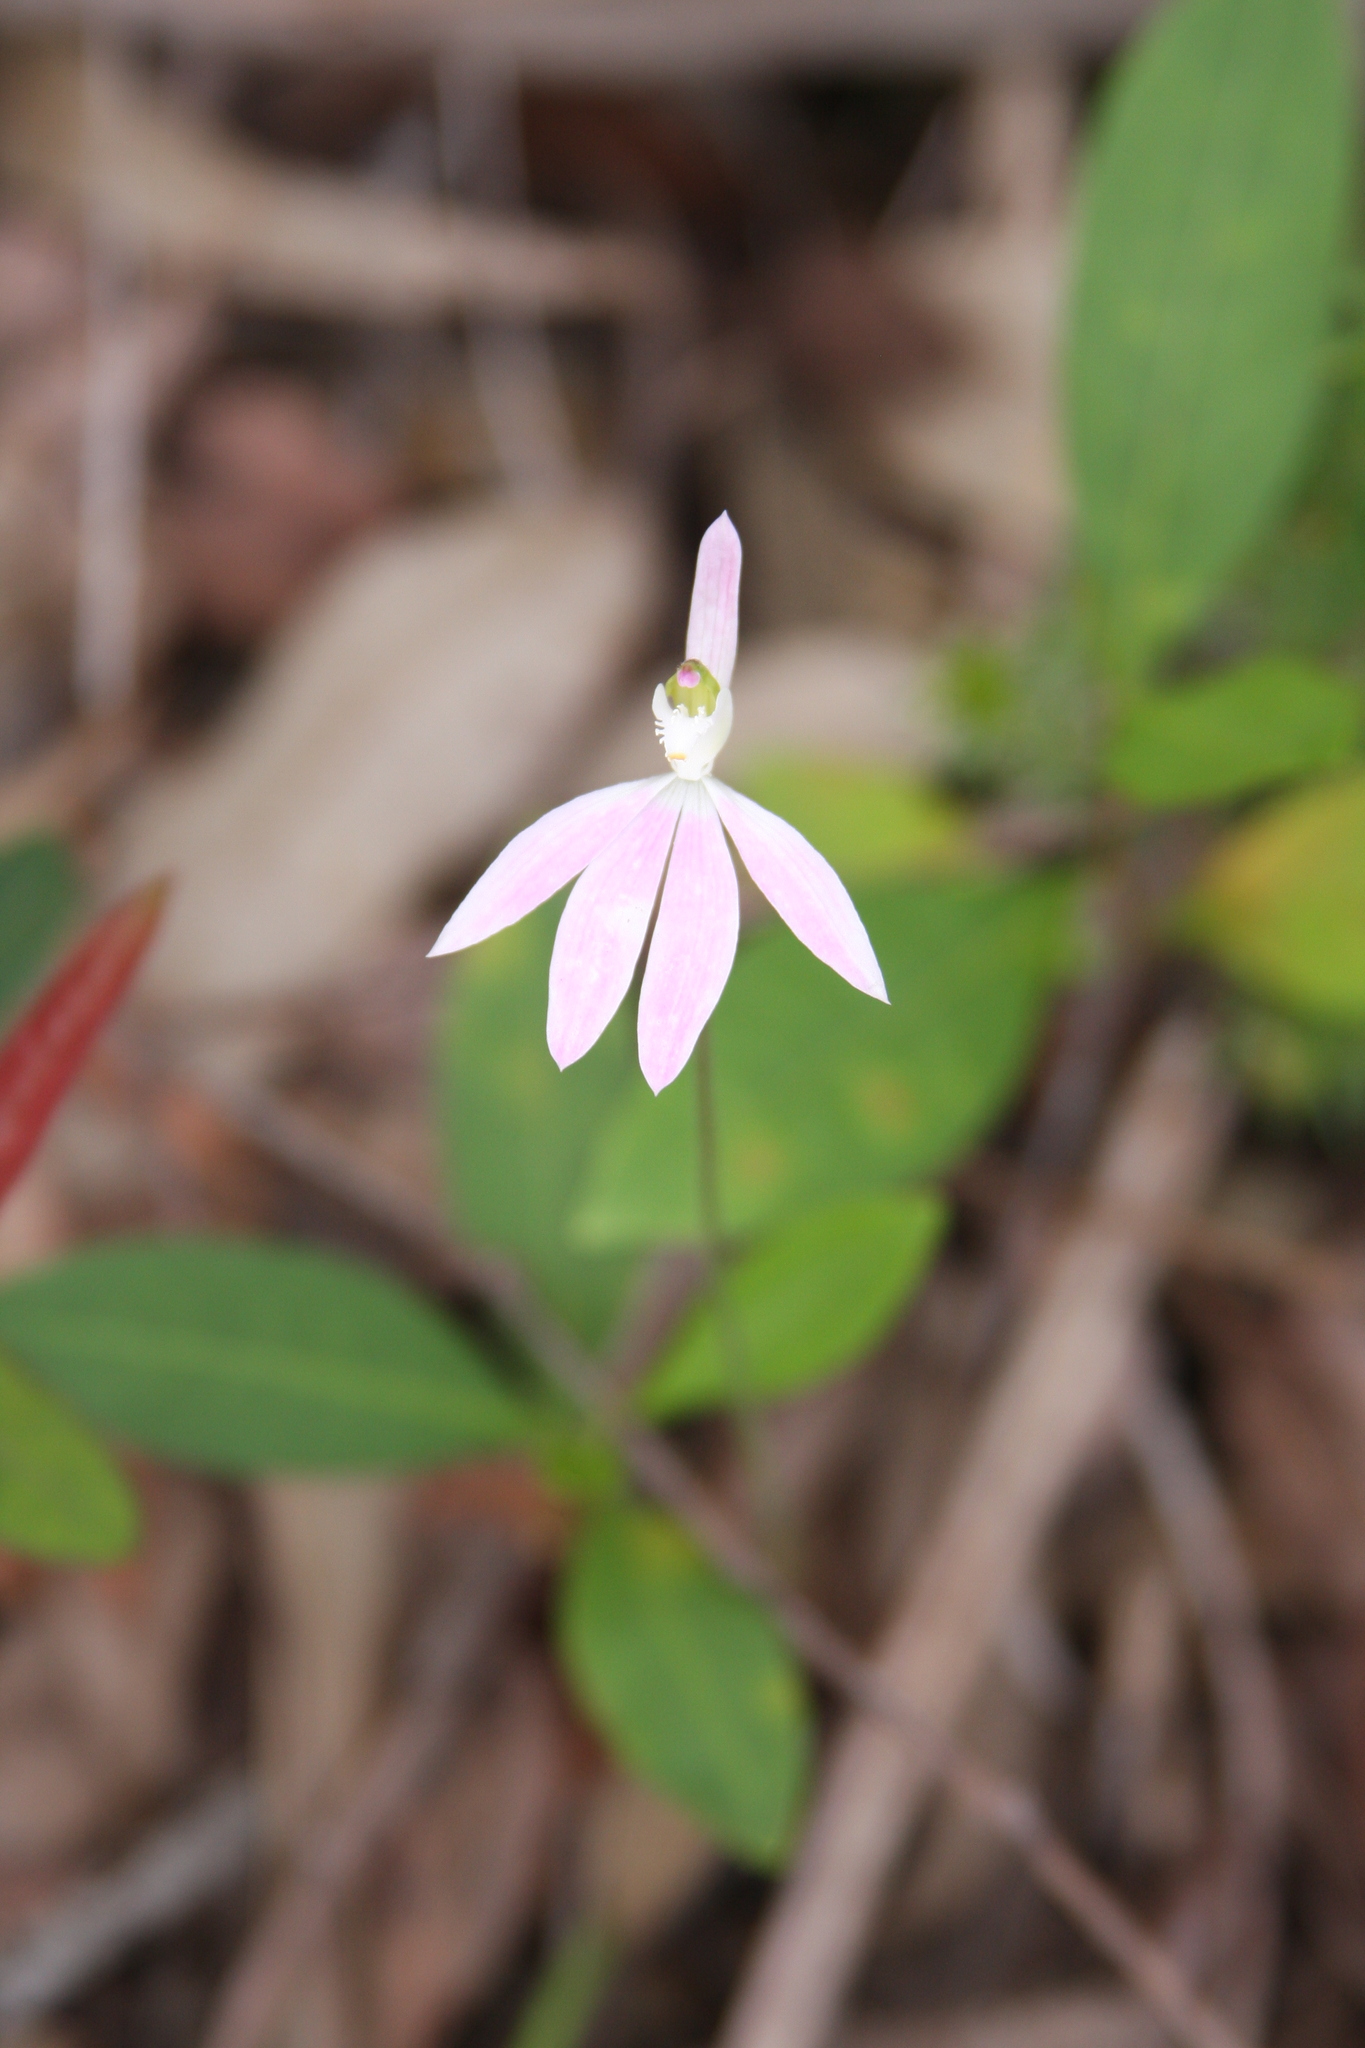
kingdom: Plantae
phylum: Tracheophyta
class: Liliopsida
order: Asparagales
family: Orchidaceae
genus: Caladenia
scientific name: Caladenia catenata
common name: White caladenia
